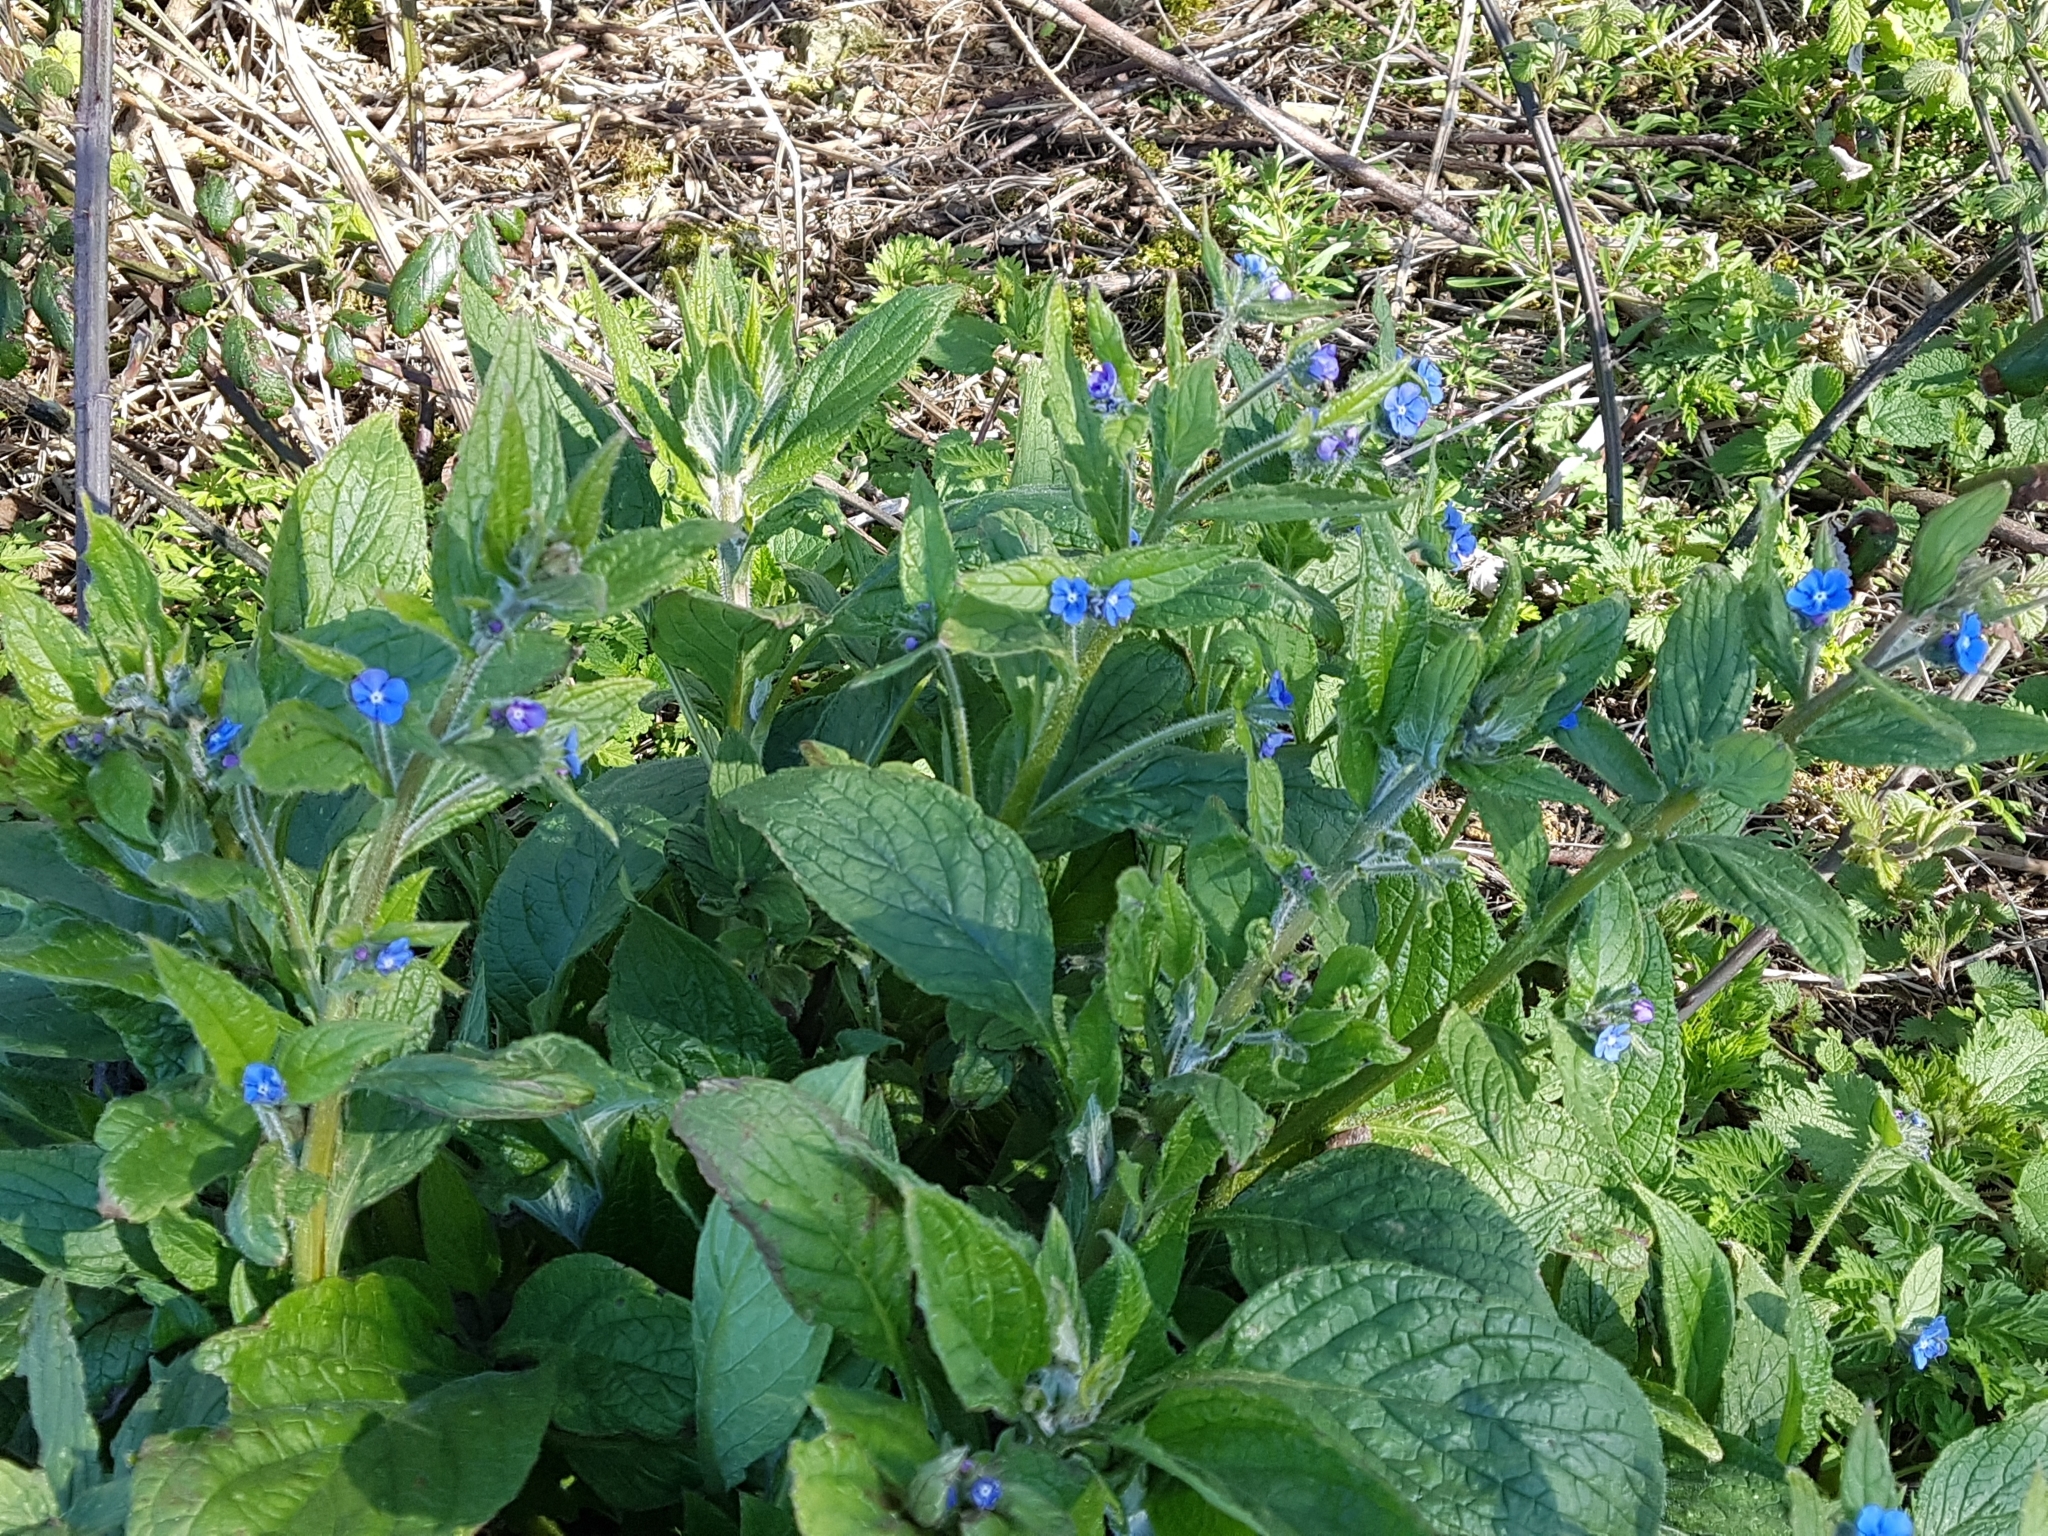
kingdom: Plantae
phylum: Tracheophyta
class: Magnoliopsida
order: Boraginales
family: Boraginaceae
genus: Pentaglottis
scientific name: Pentaglottis sempervirens
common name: Green alkanet
